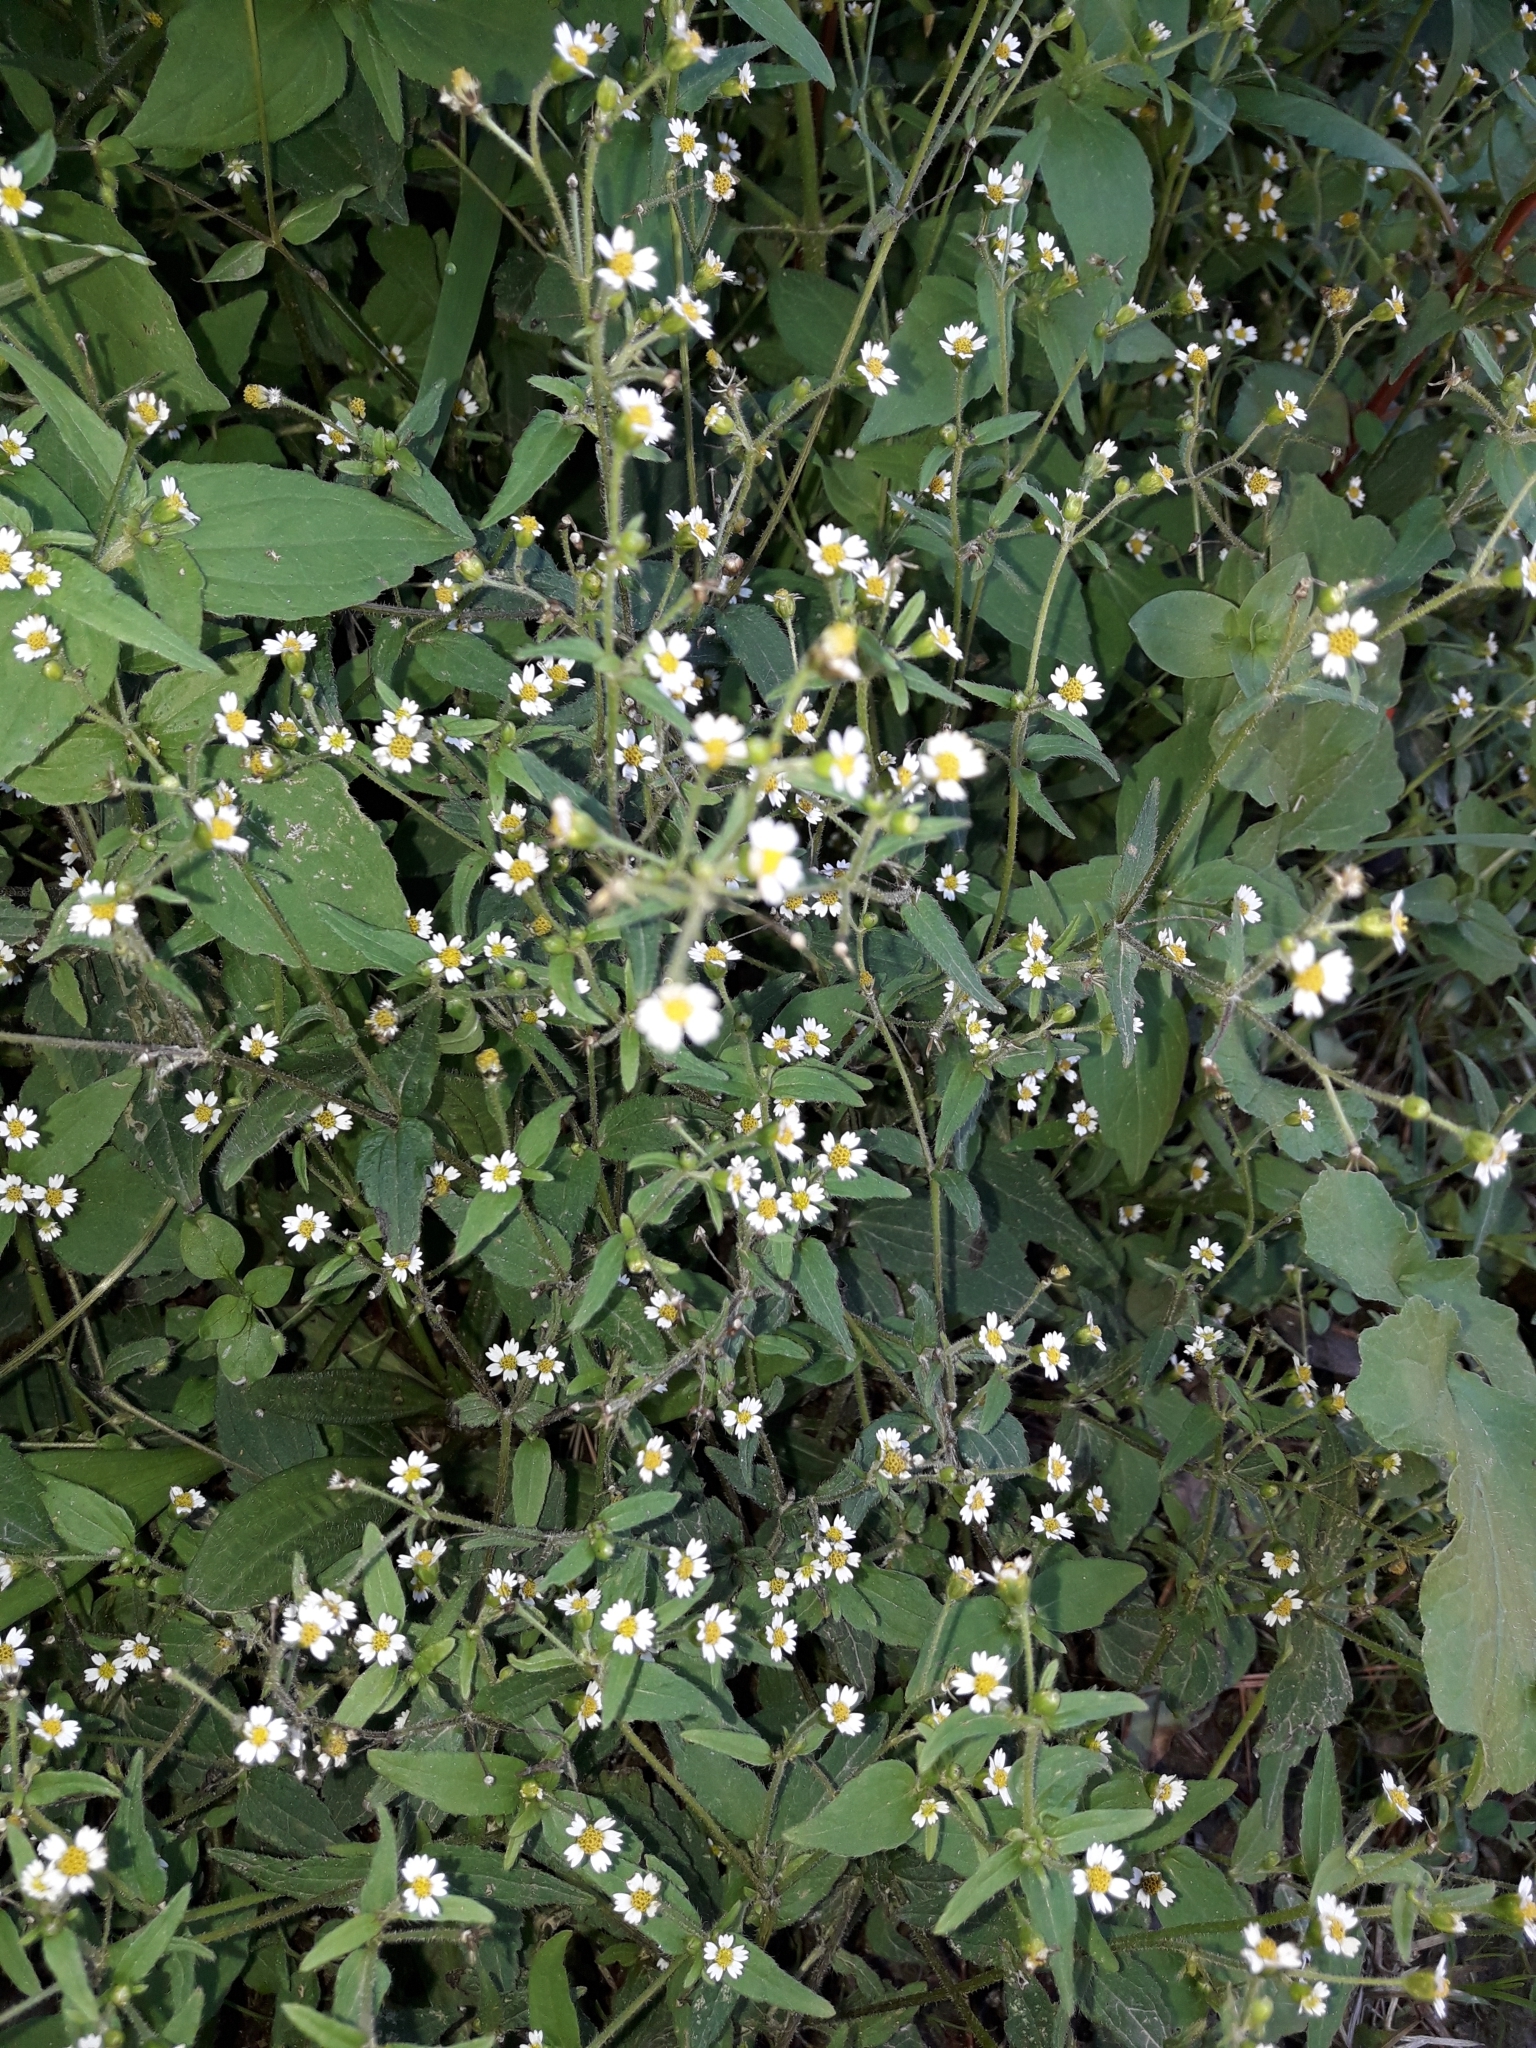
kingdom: Plantae
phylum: Tracheophyta
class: Magnoliopsida
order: Asterales
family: Asteraceae
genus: Galinsoga
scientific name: Galinsoga parviflora
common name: Gallant soldier
